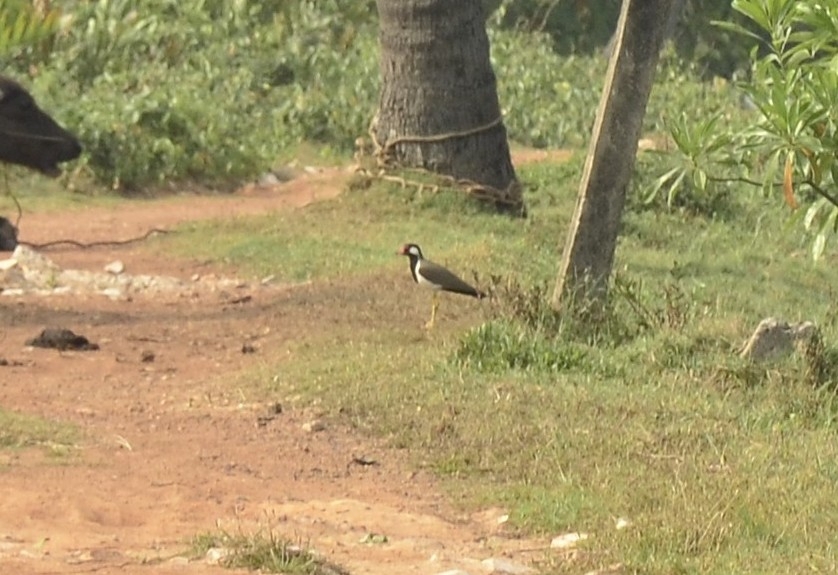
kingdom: Animalia
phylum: Chordata
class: Aves
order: Charadriiformes
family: Charadriidae
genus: Vanellus
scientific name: Vanellus indicus
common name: Red-wattled lapwing
